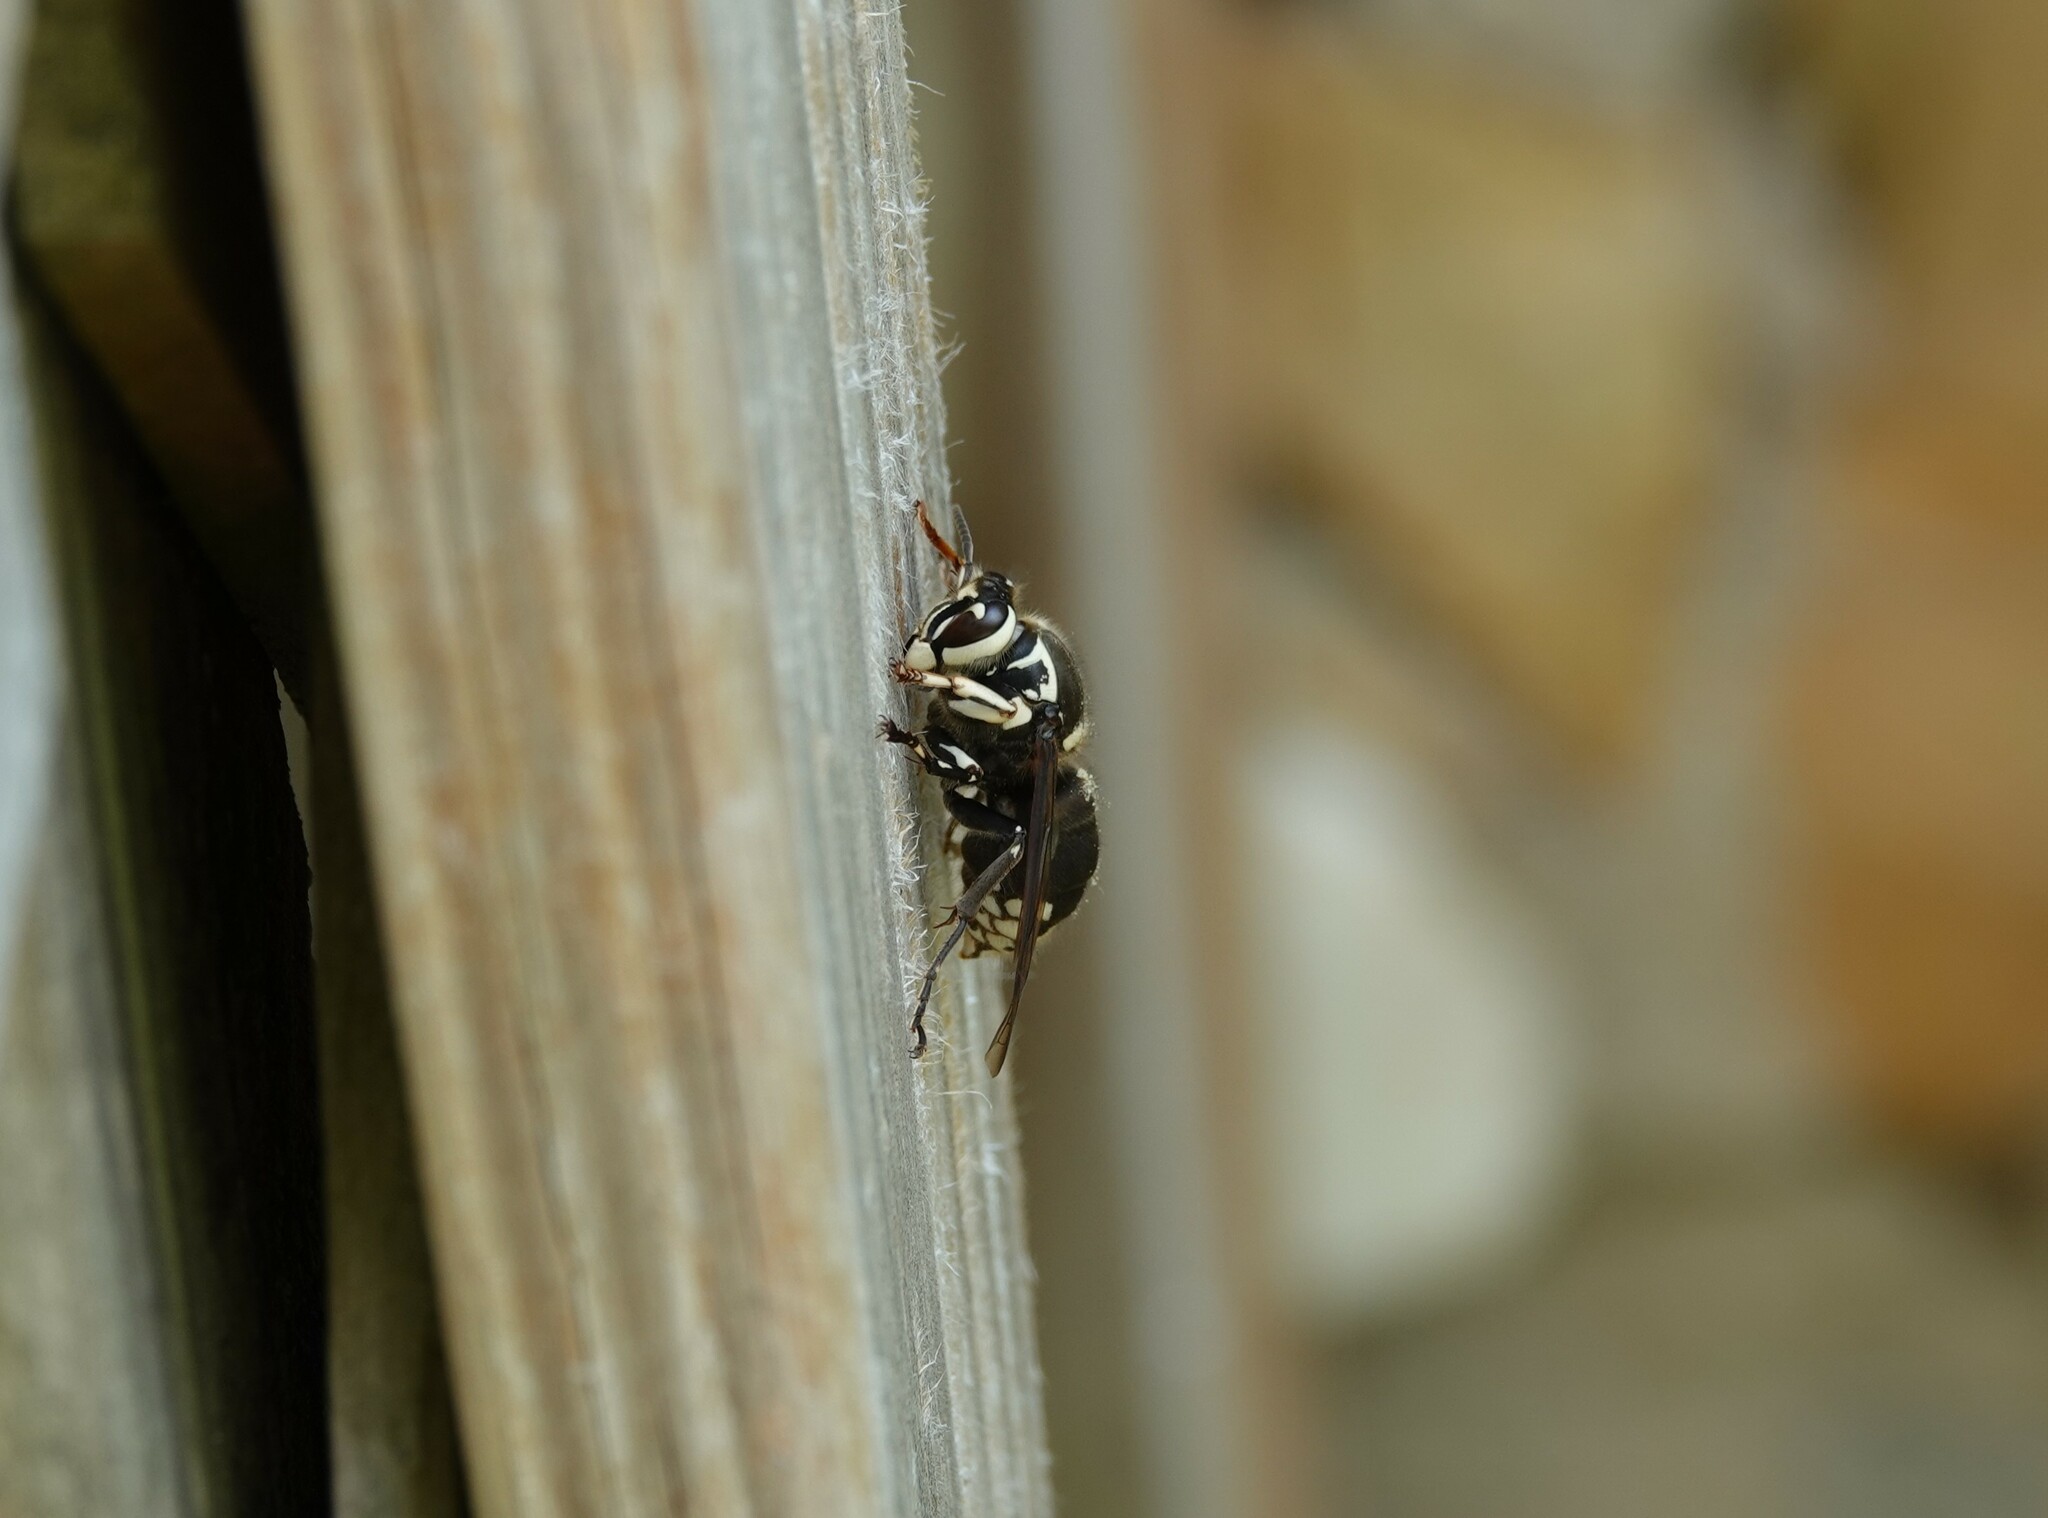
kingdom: Animalia
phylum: Arthropoda
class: Insecta
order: Hymenoptera
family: Vespidae
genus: Dolichovespula
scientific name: Dolichovespula maculata
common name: Bald-faced hornet
